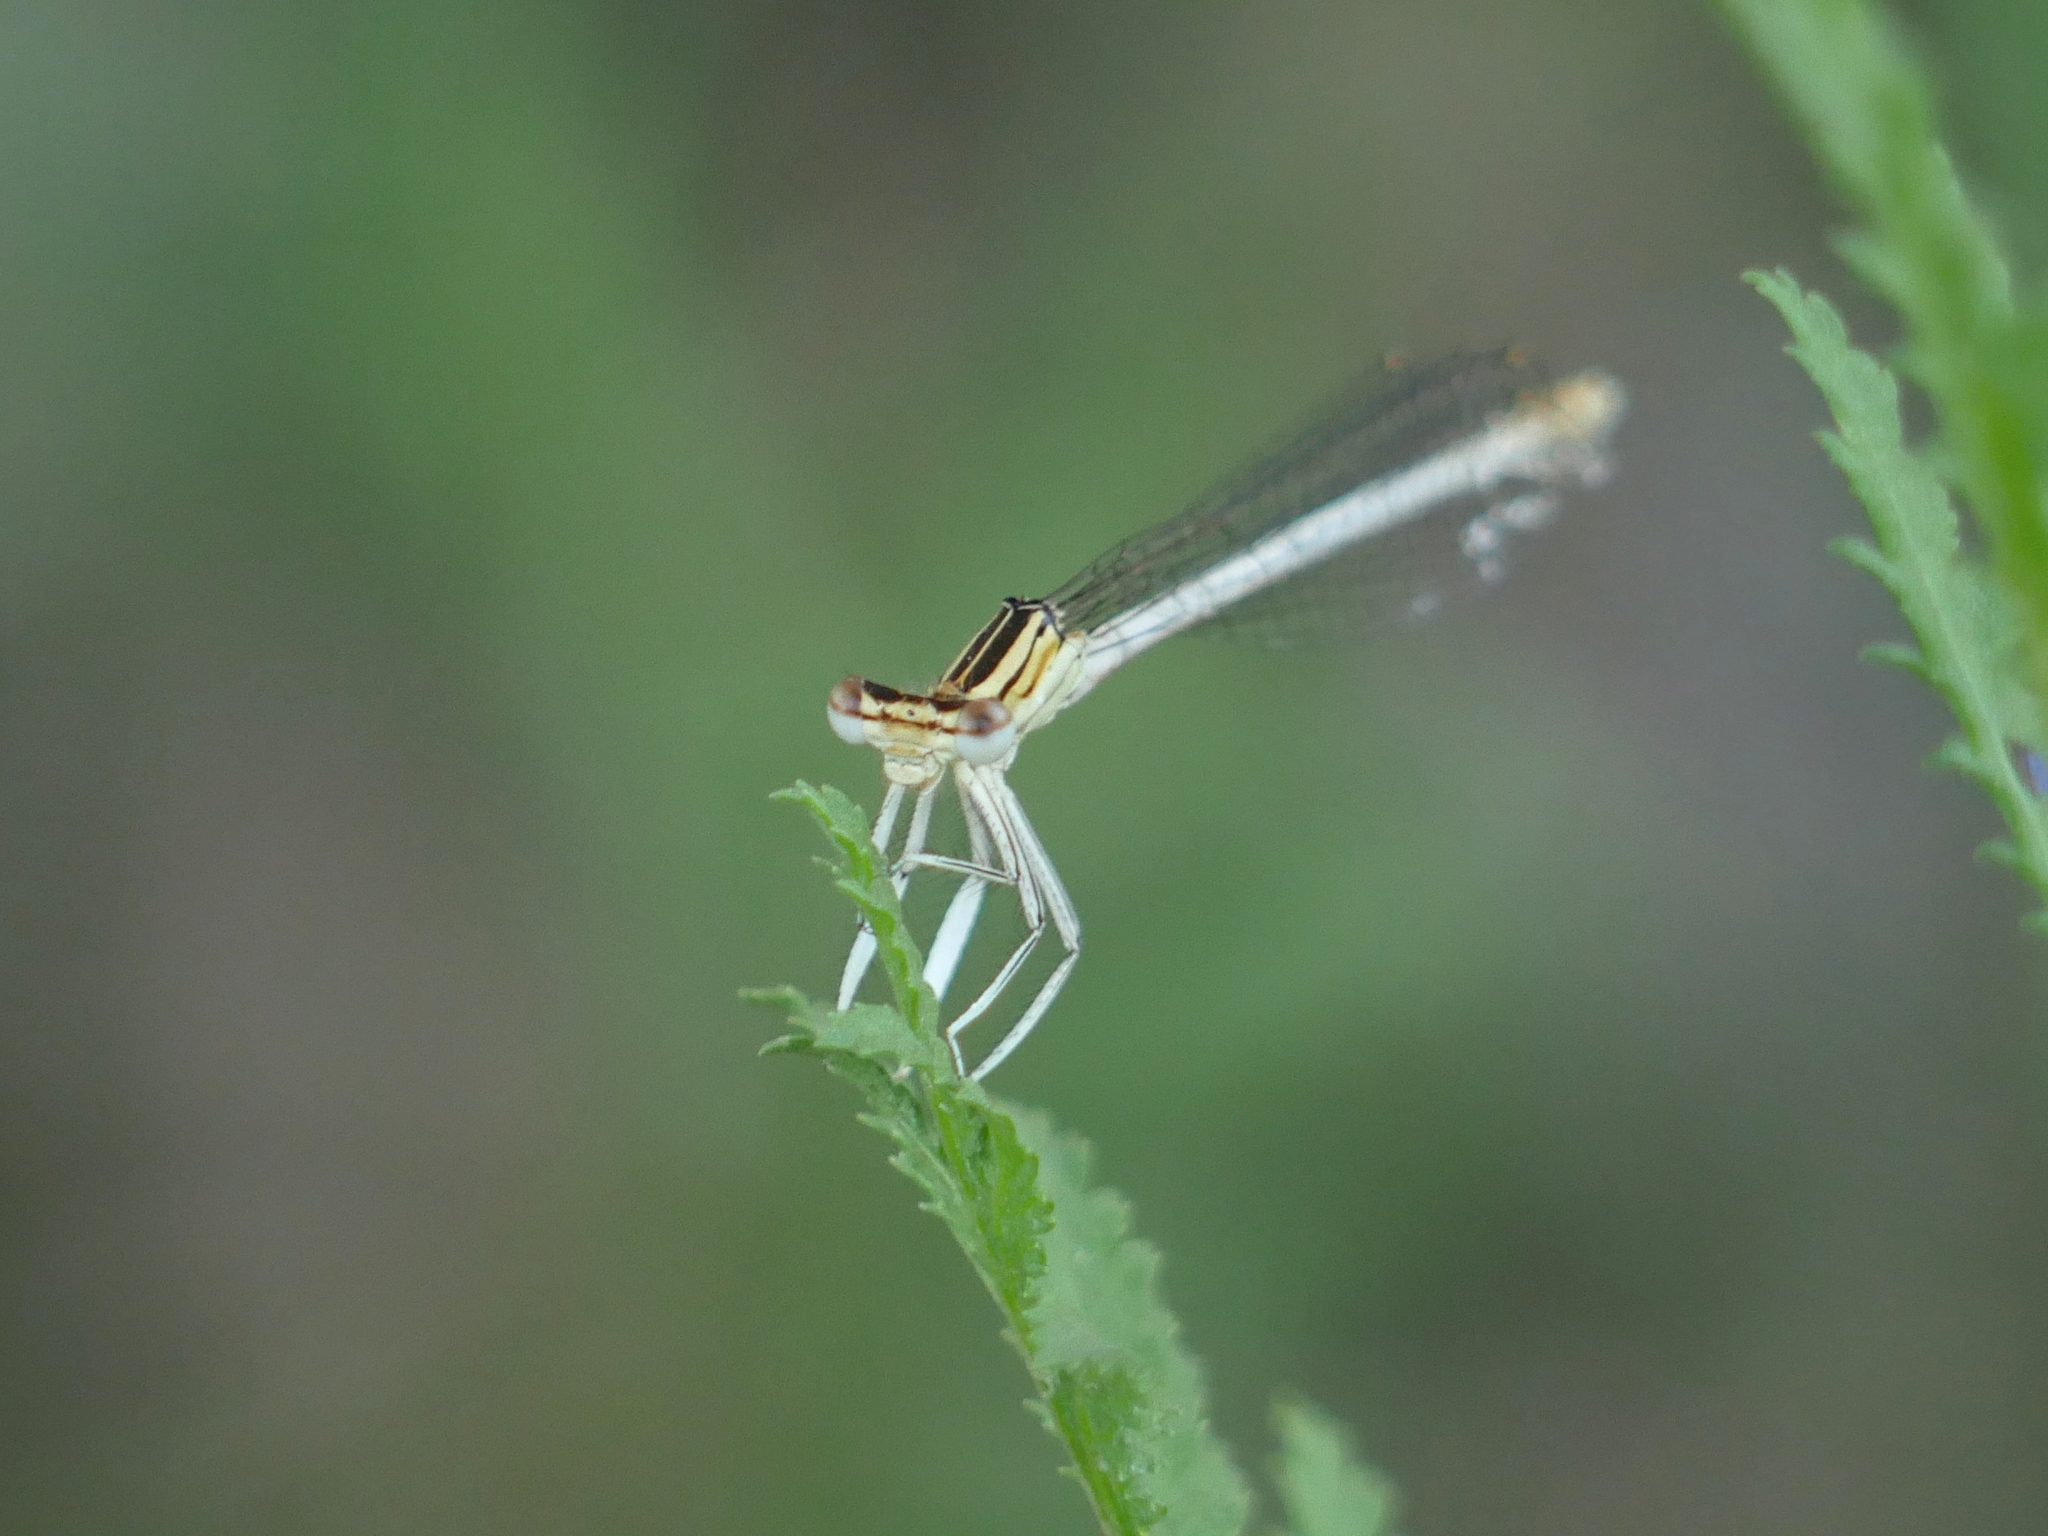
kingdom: Animalia
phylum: Arthropoda
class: Insecta
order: Odonata
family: Platycnemididae
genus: Platycnemis
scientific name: Platycnemis pennipes
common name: White-legged damselfly
